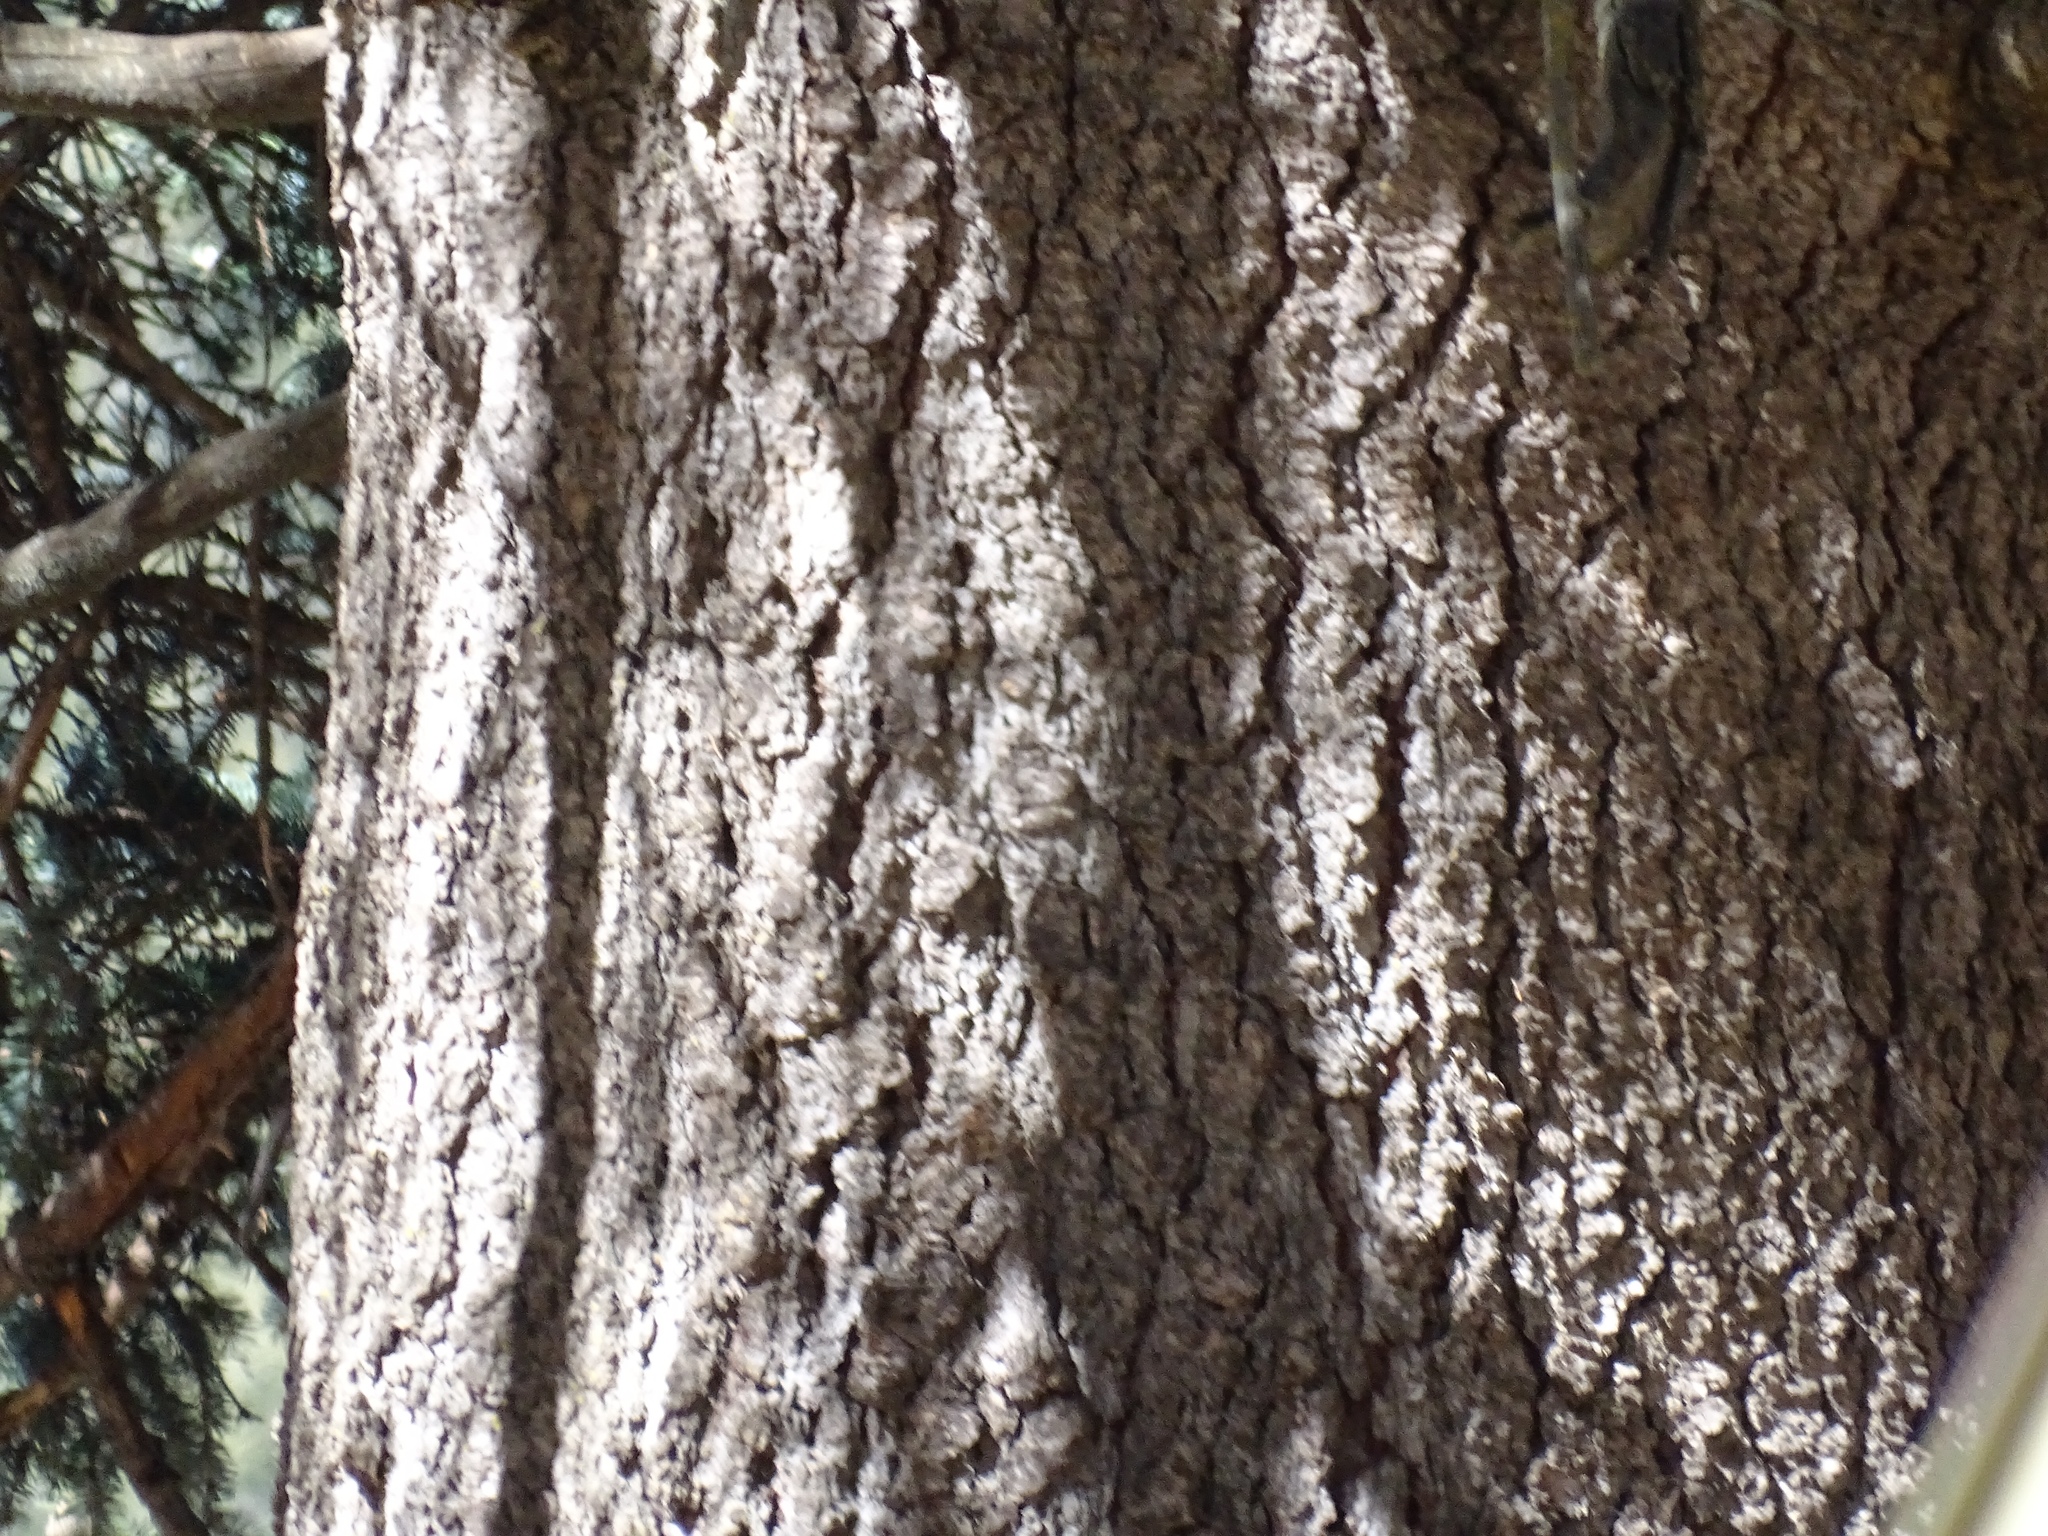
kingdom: Plantae
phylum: Tracheophyta
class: Pinopsida
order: Pinales
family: Pinaceae
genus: Picea
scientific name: Picea engelmannii
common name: Engelmann spruce
